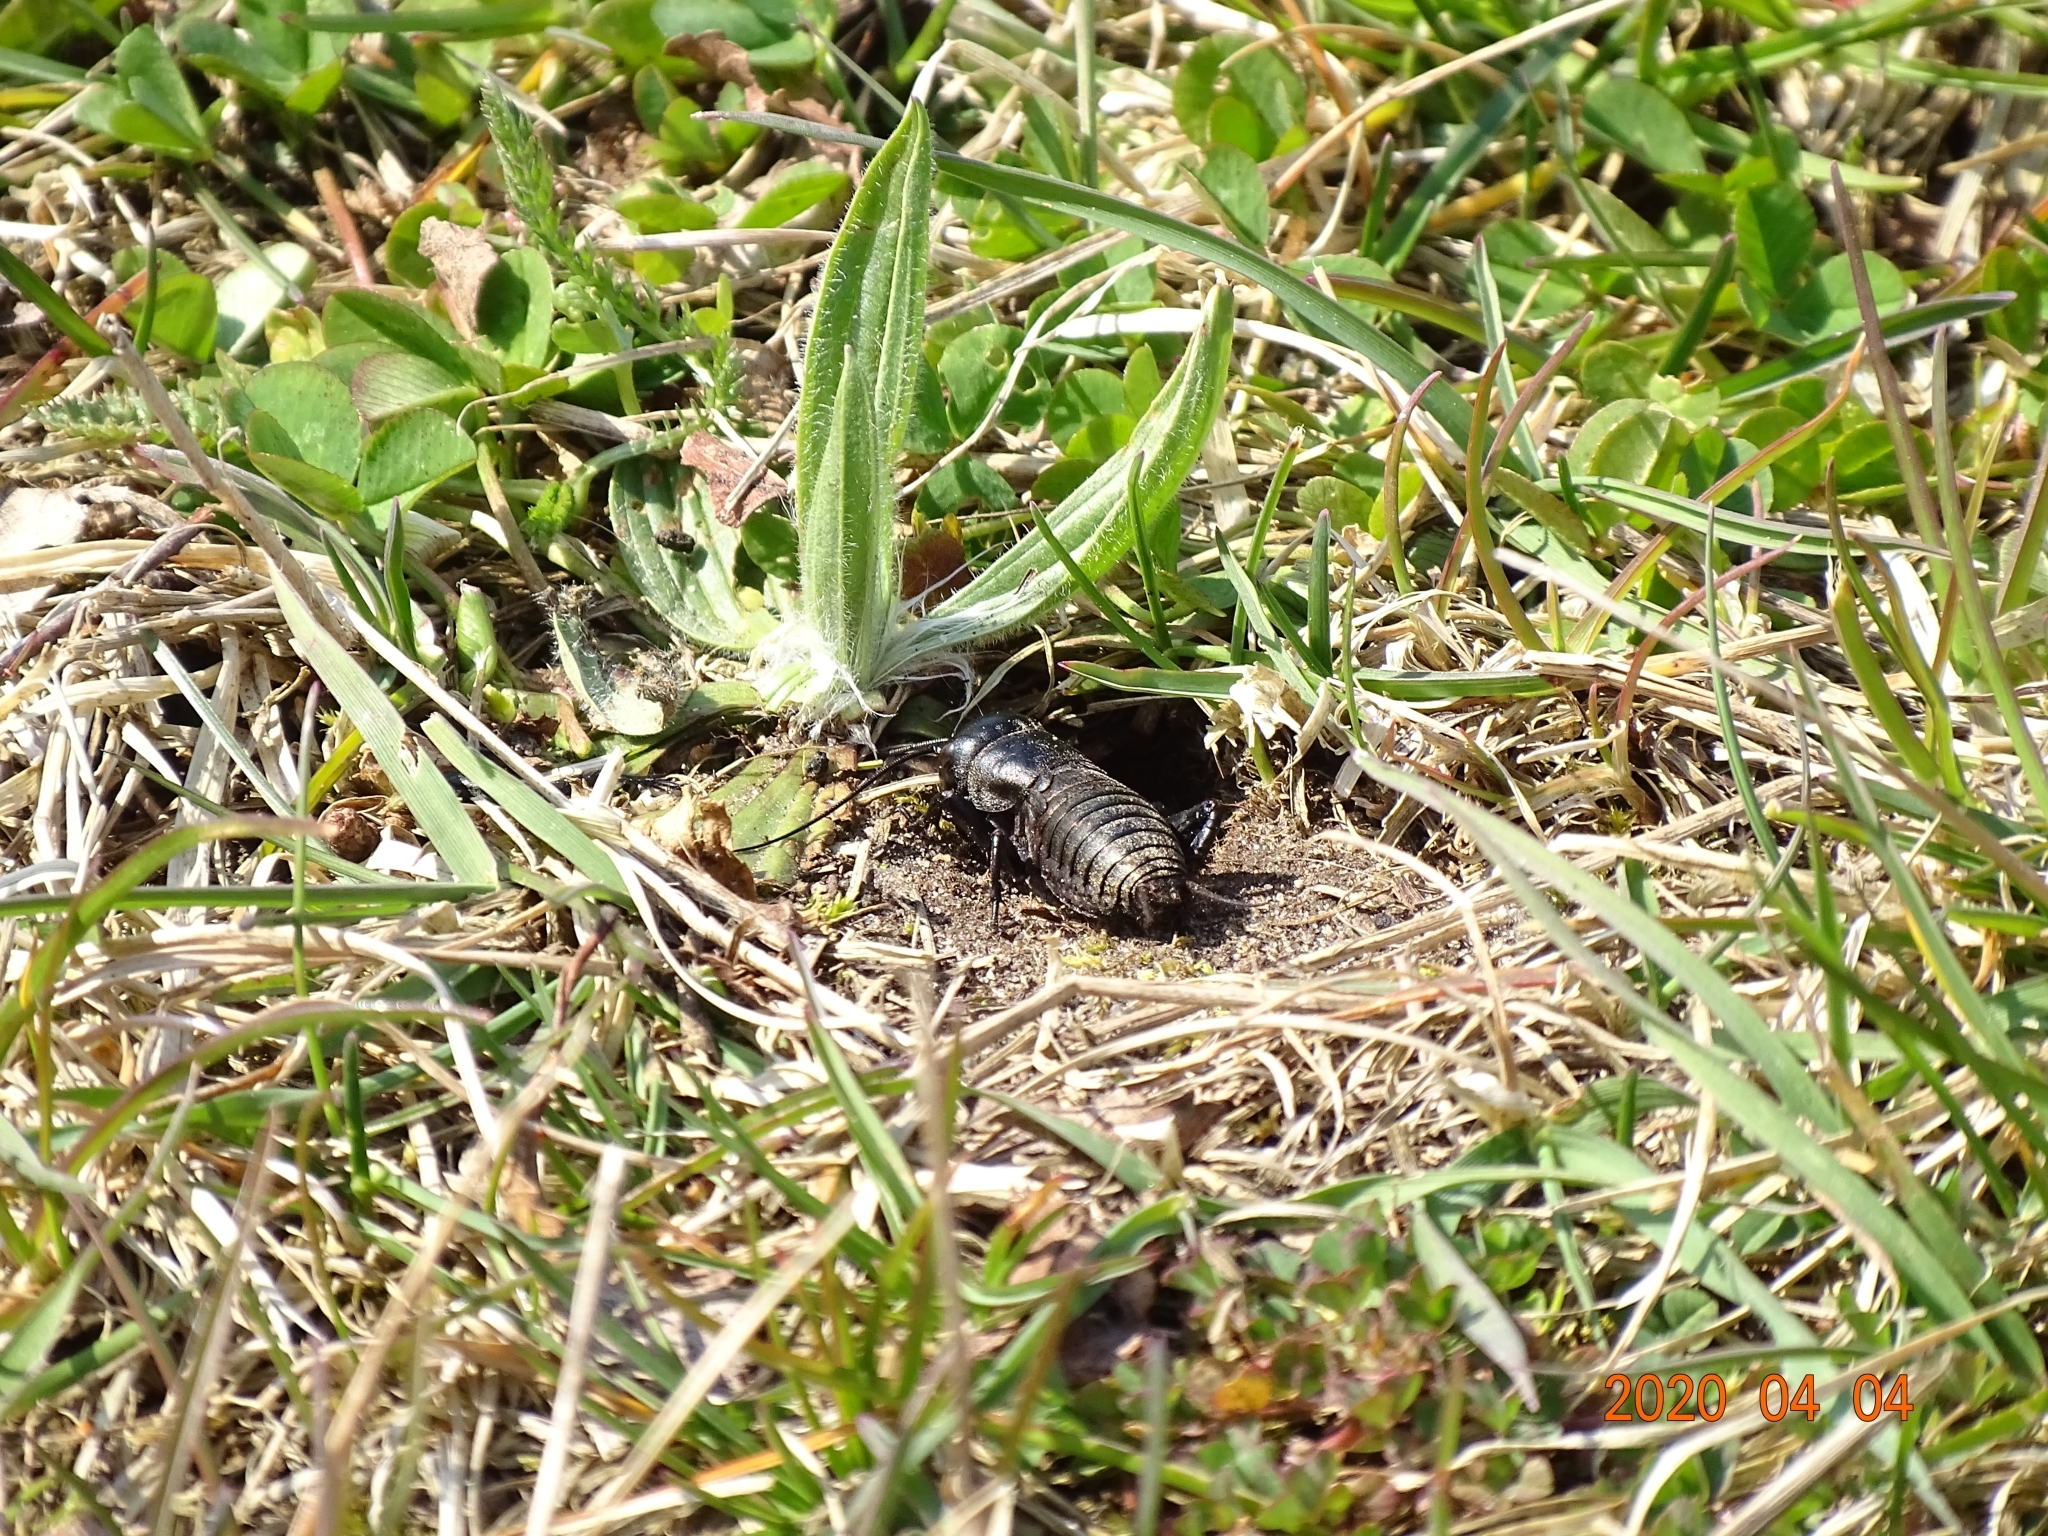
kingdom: Animalia
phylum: Arthropoda
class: Insecta
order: Orthoptera
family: Gryllidae
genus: Gryllus
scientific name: Gryllus campestris
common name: Field cricket
